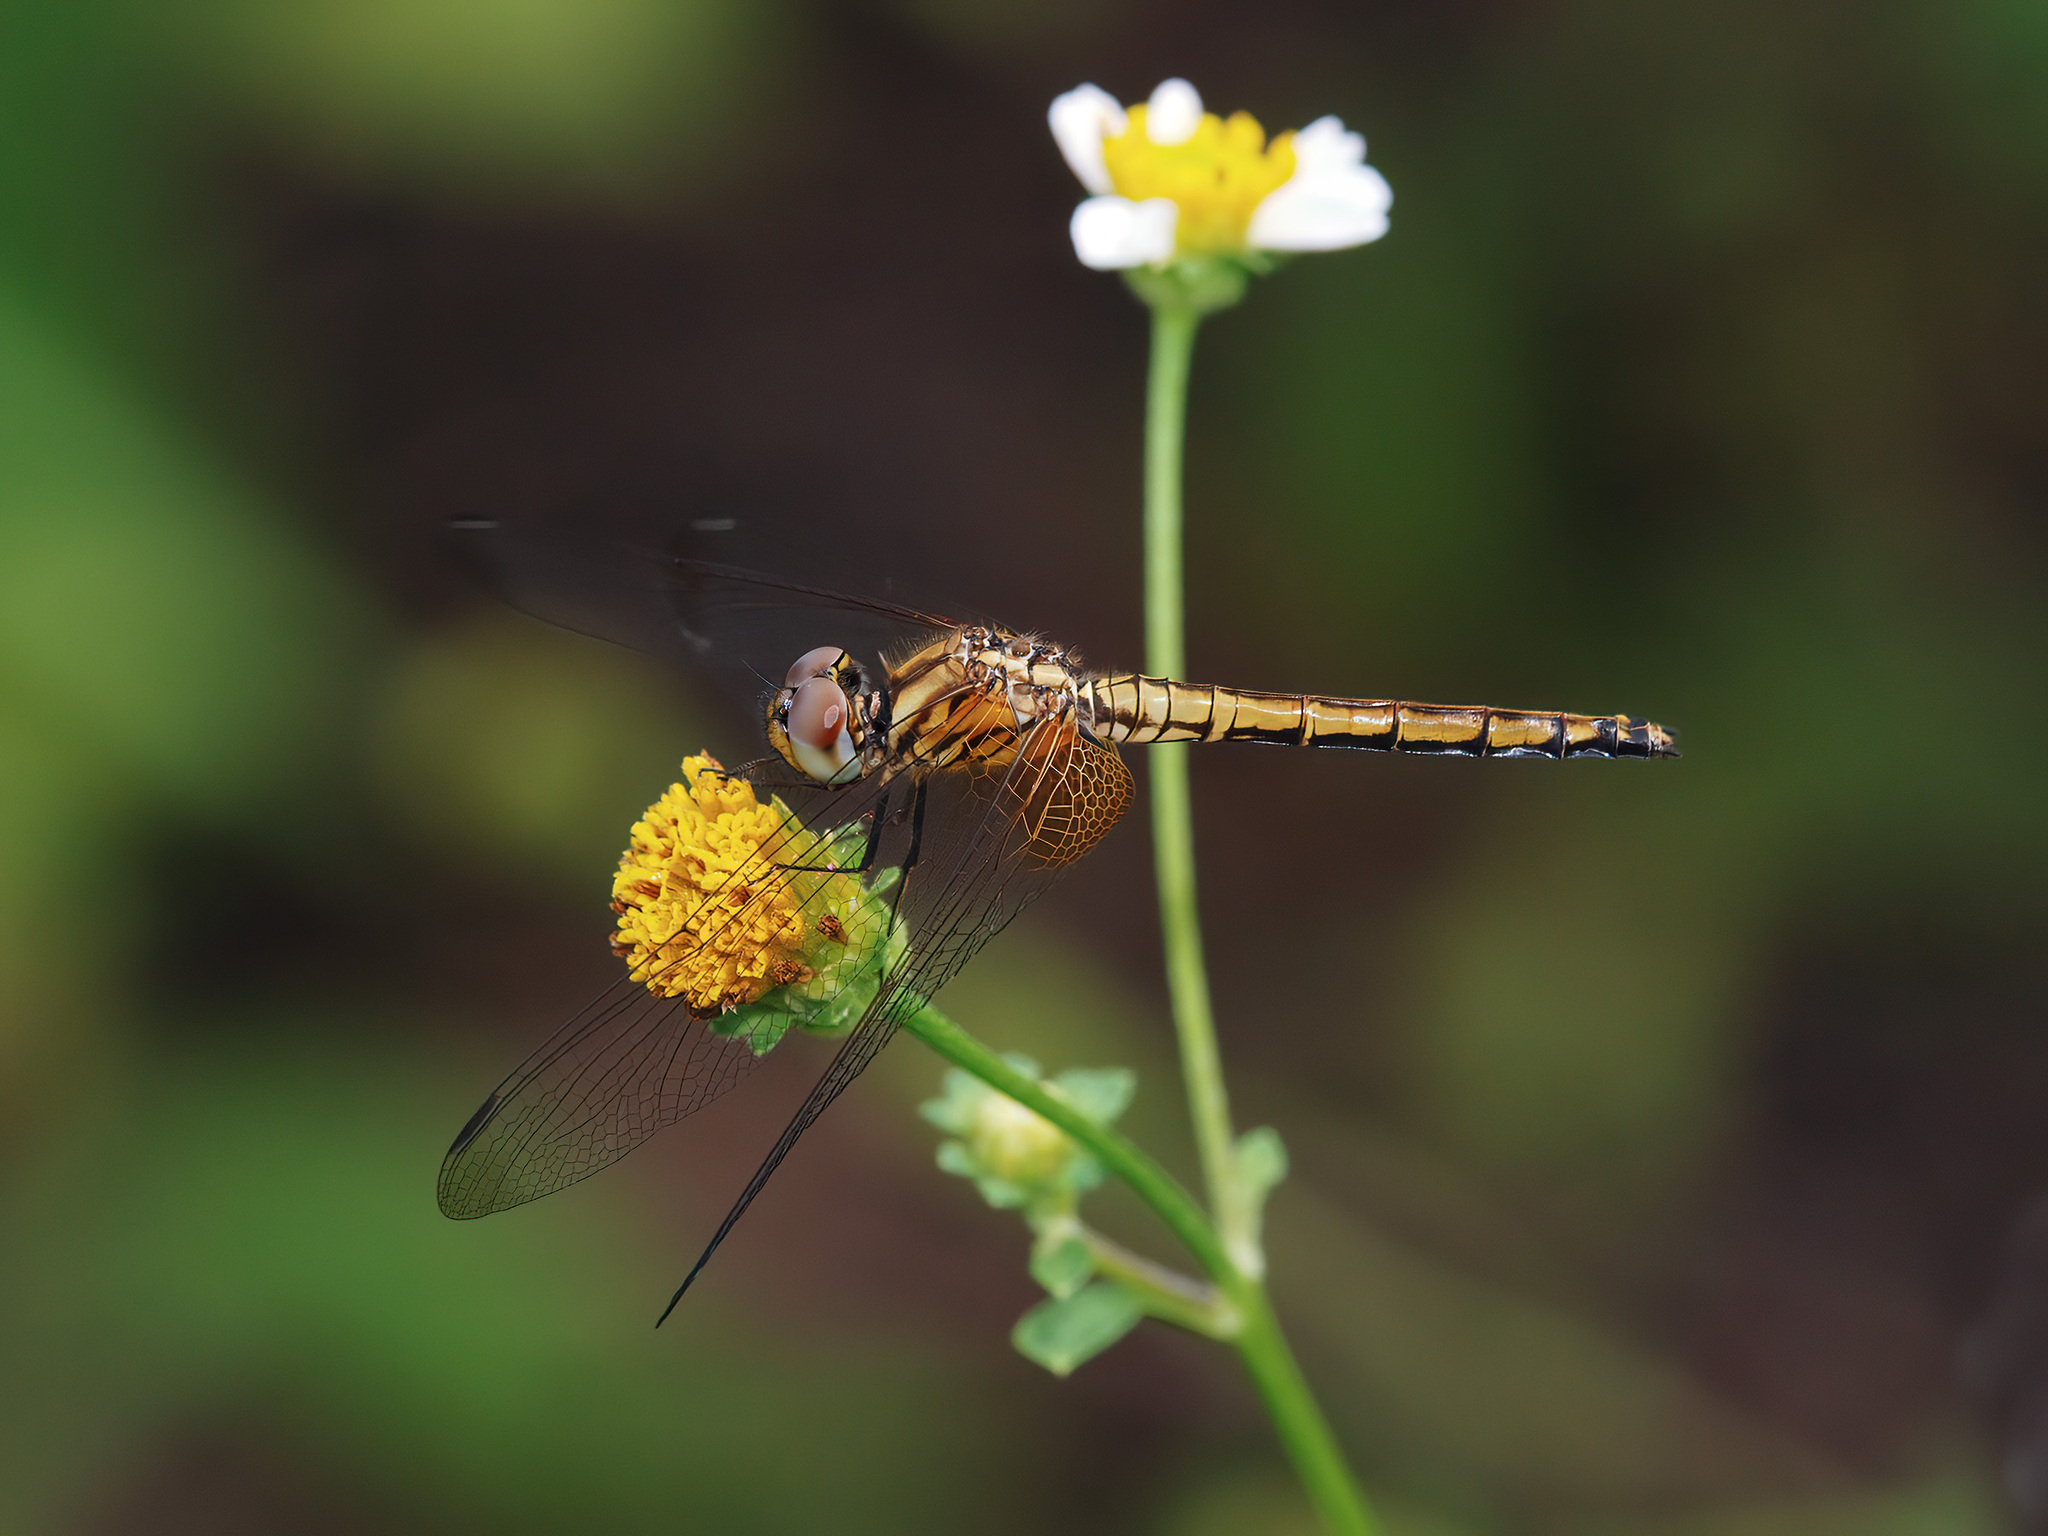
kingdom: Animalia
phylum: Arthropoda
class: Insecta
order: Odonata
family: Libellulidae
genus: Trithemis
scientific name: Trithemis aurora
